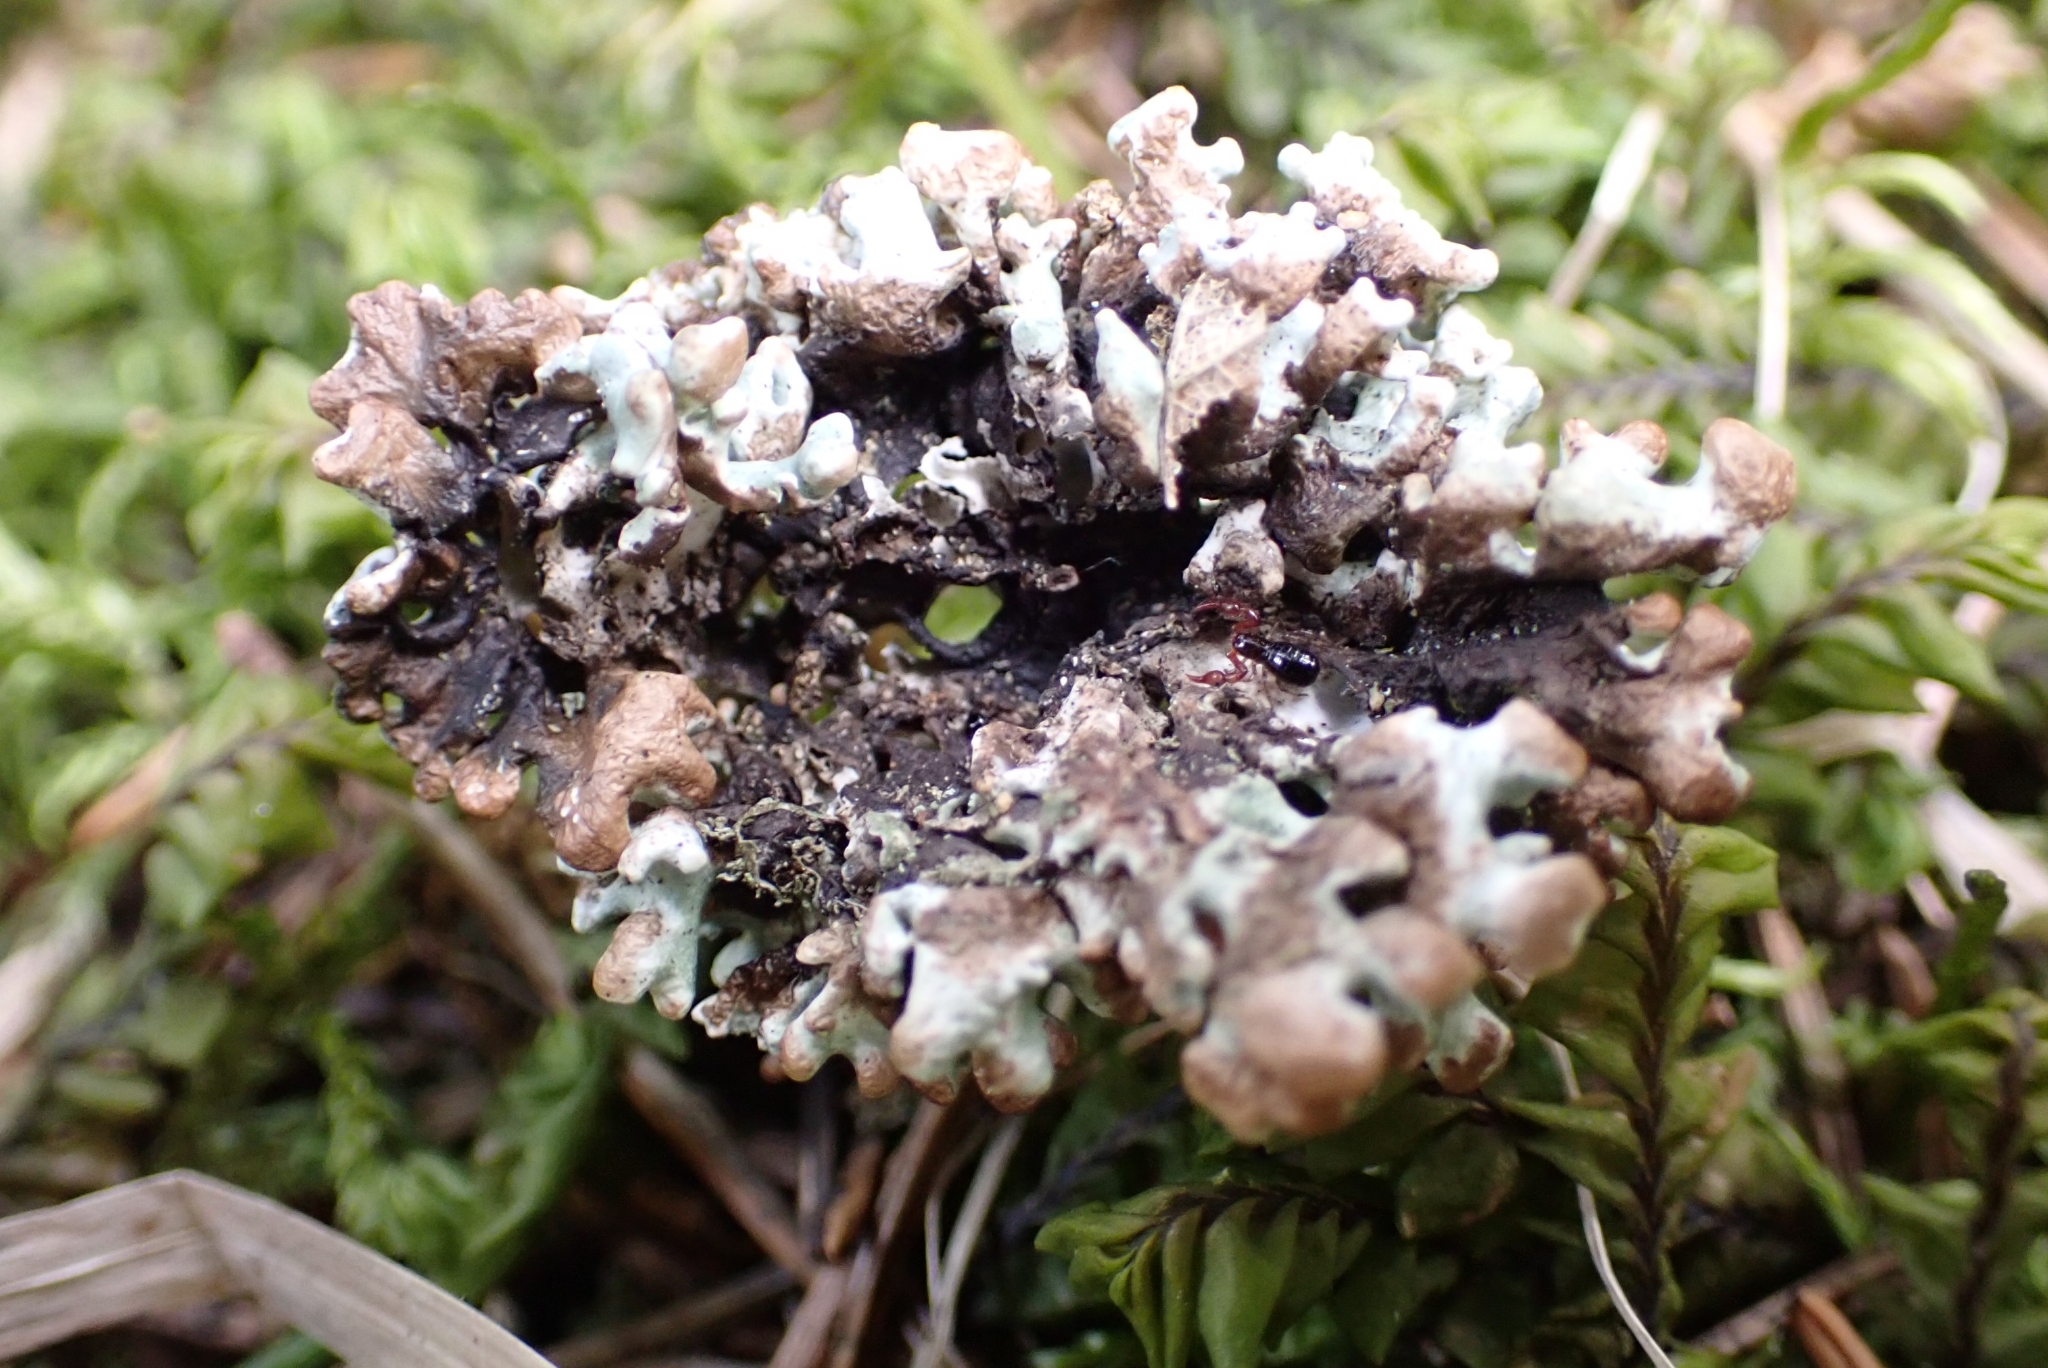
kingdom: Fungi
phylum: Ascomycota
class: Lecanoromycetes
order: Lecanorales
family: Parmeliaceae
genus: Hypogymnia
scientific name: Hypogymnia tubulosa
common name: Powder-headed tube lichen
